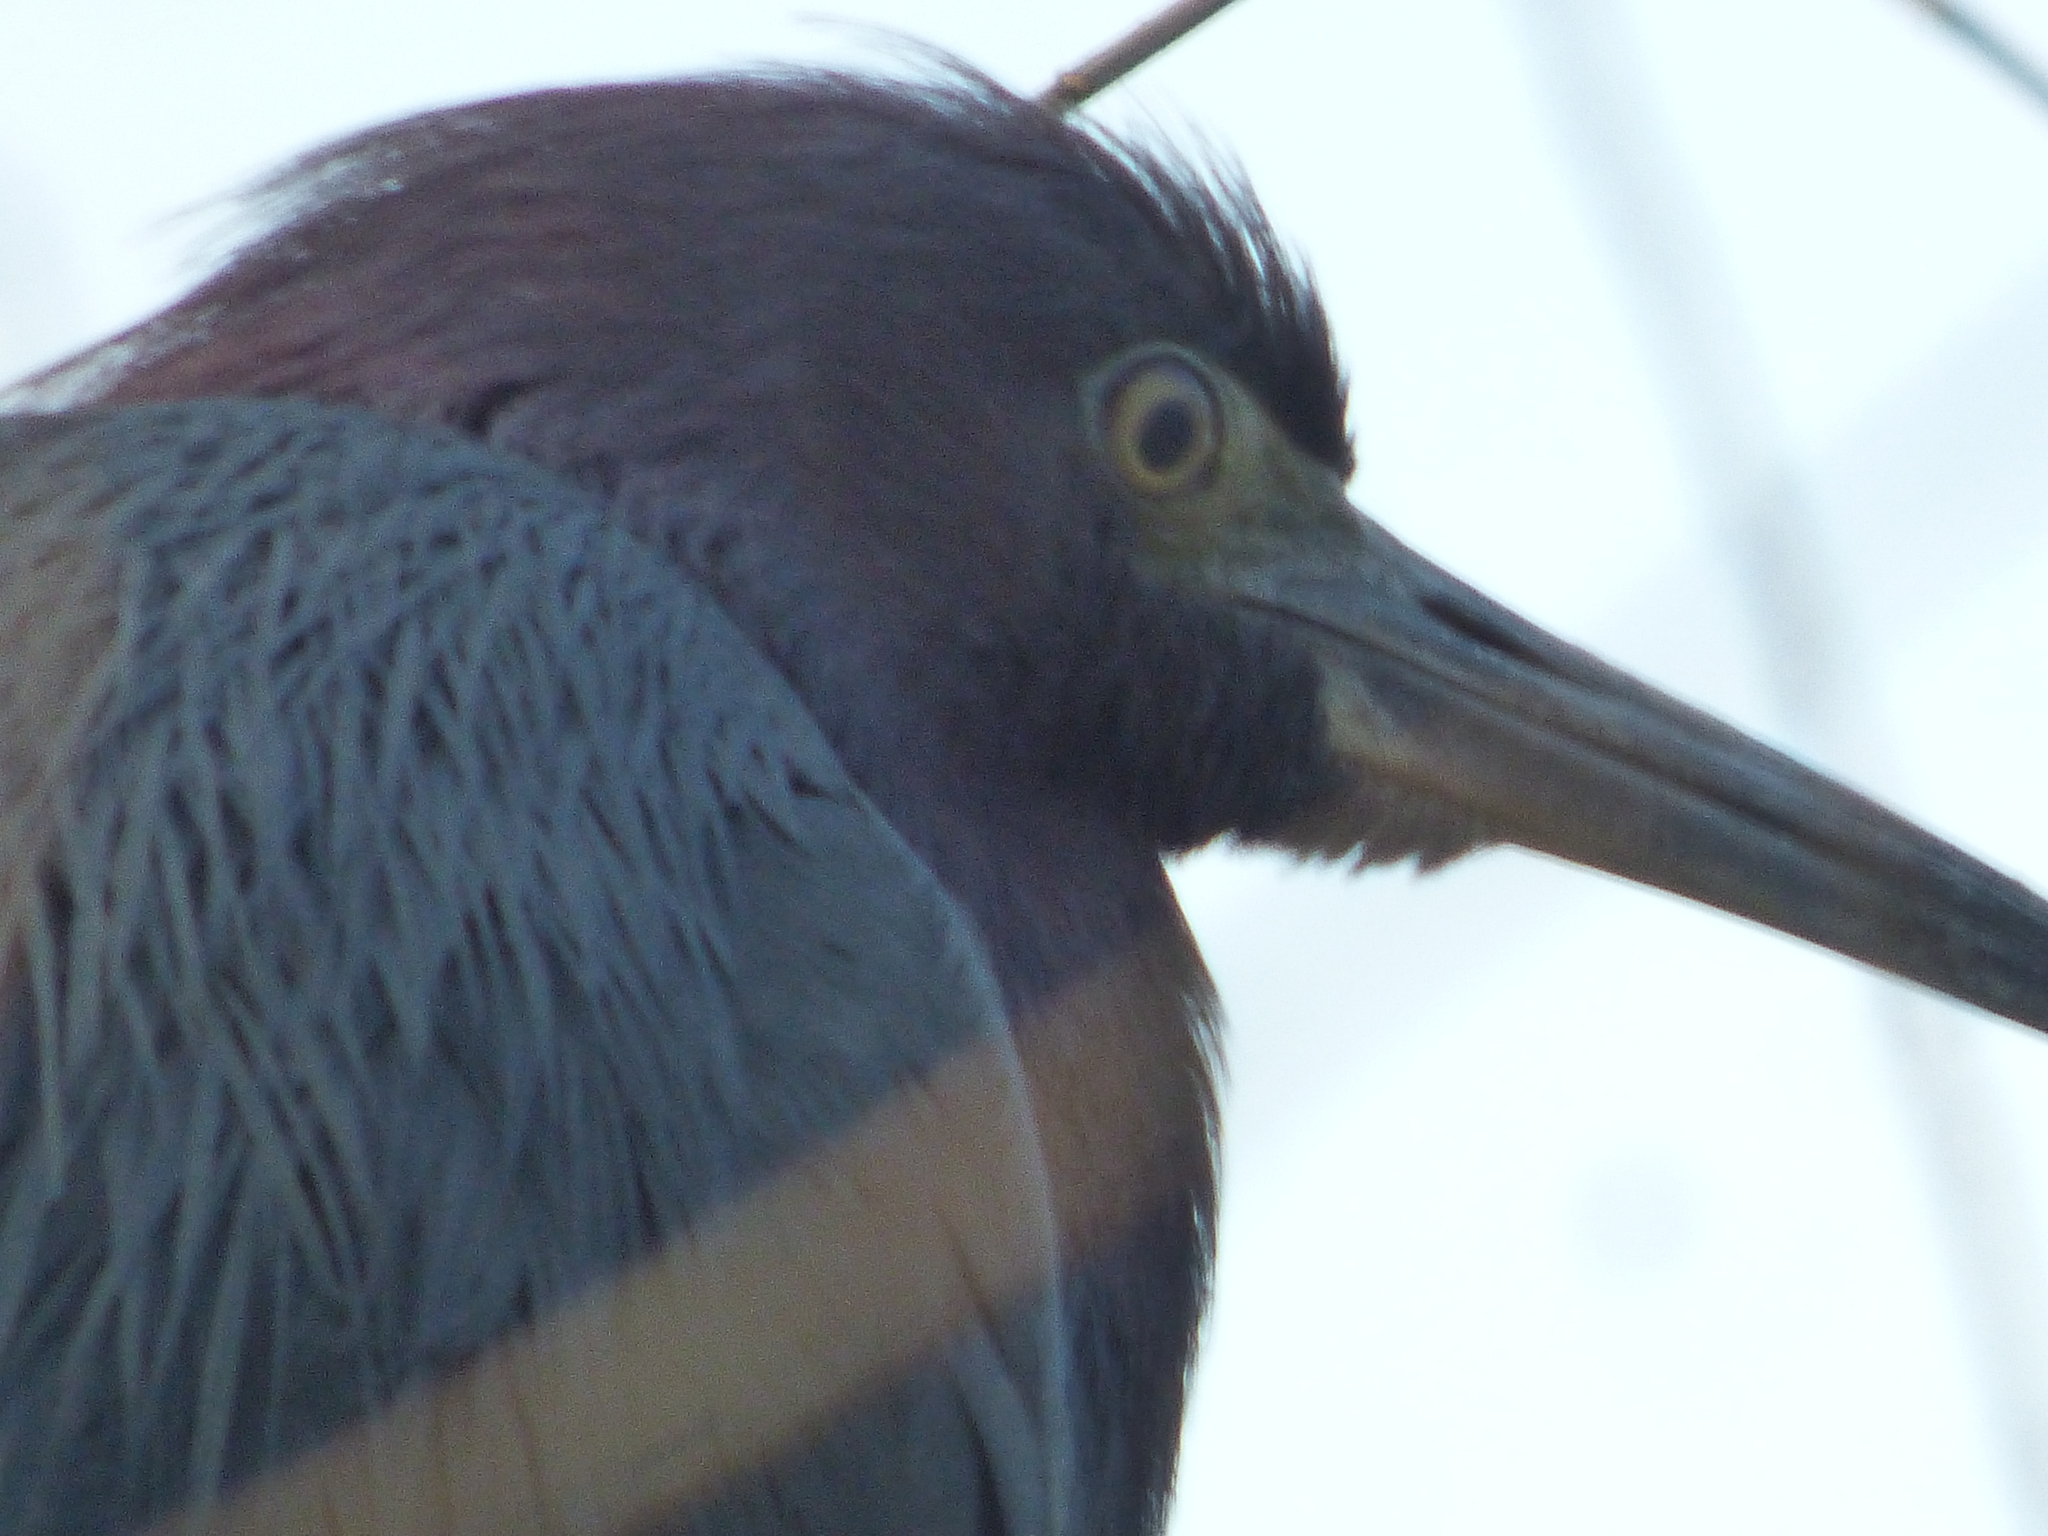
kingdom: Animalia
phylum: Chordata
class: Aves
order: Pelecaniformes
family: Ardeidae
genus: Egretta
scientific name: Egretta caerulea
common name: Little blue heron
